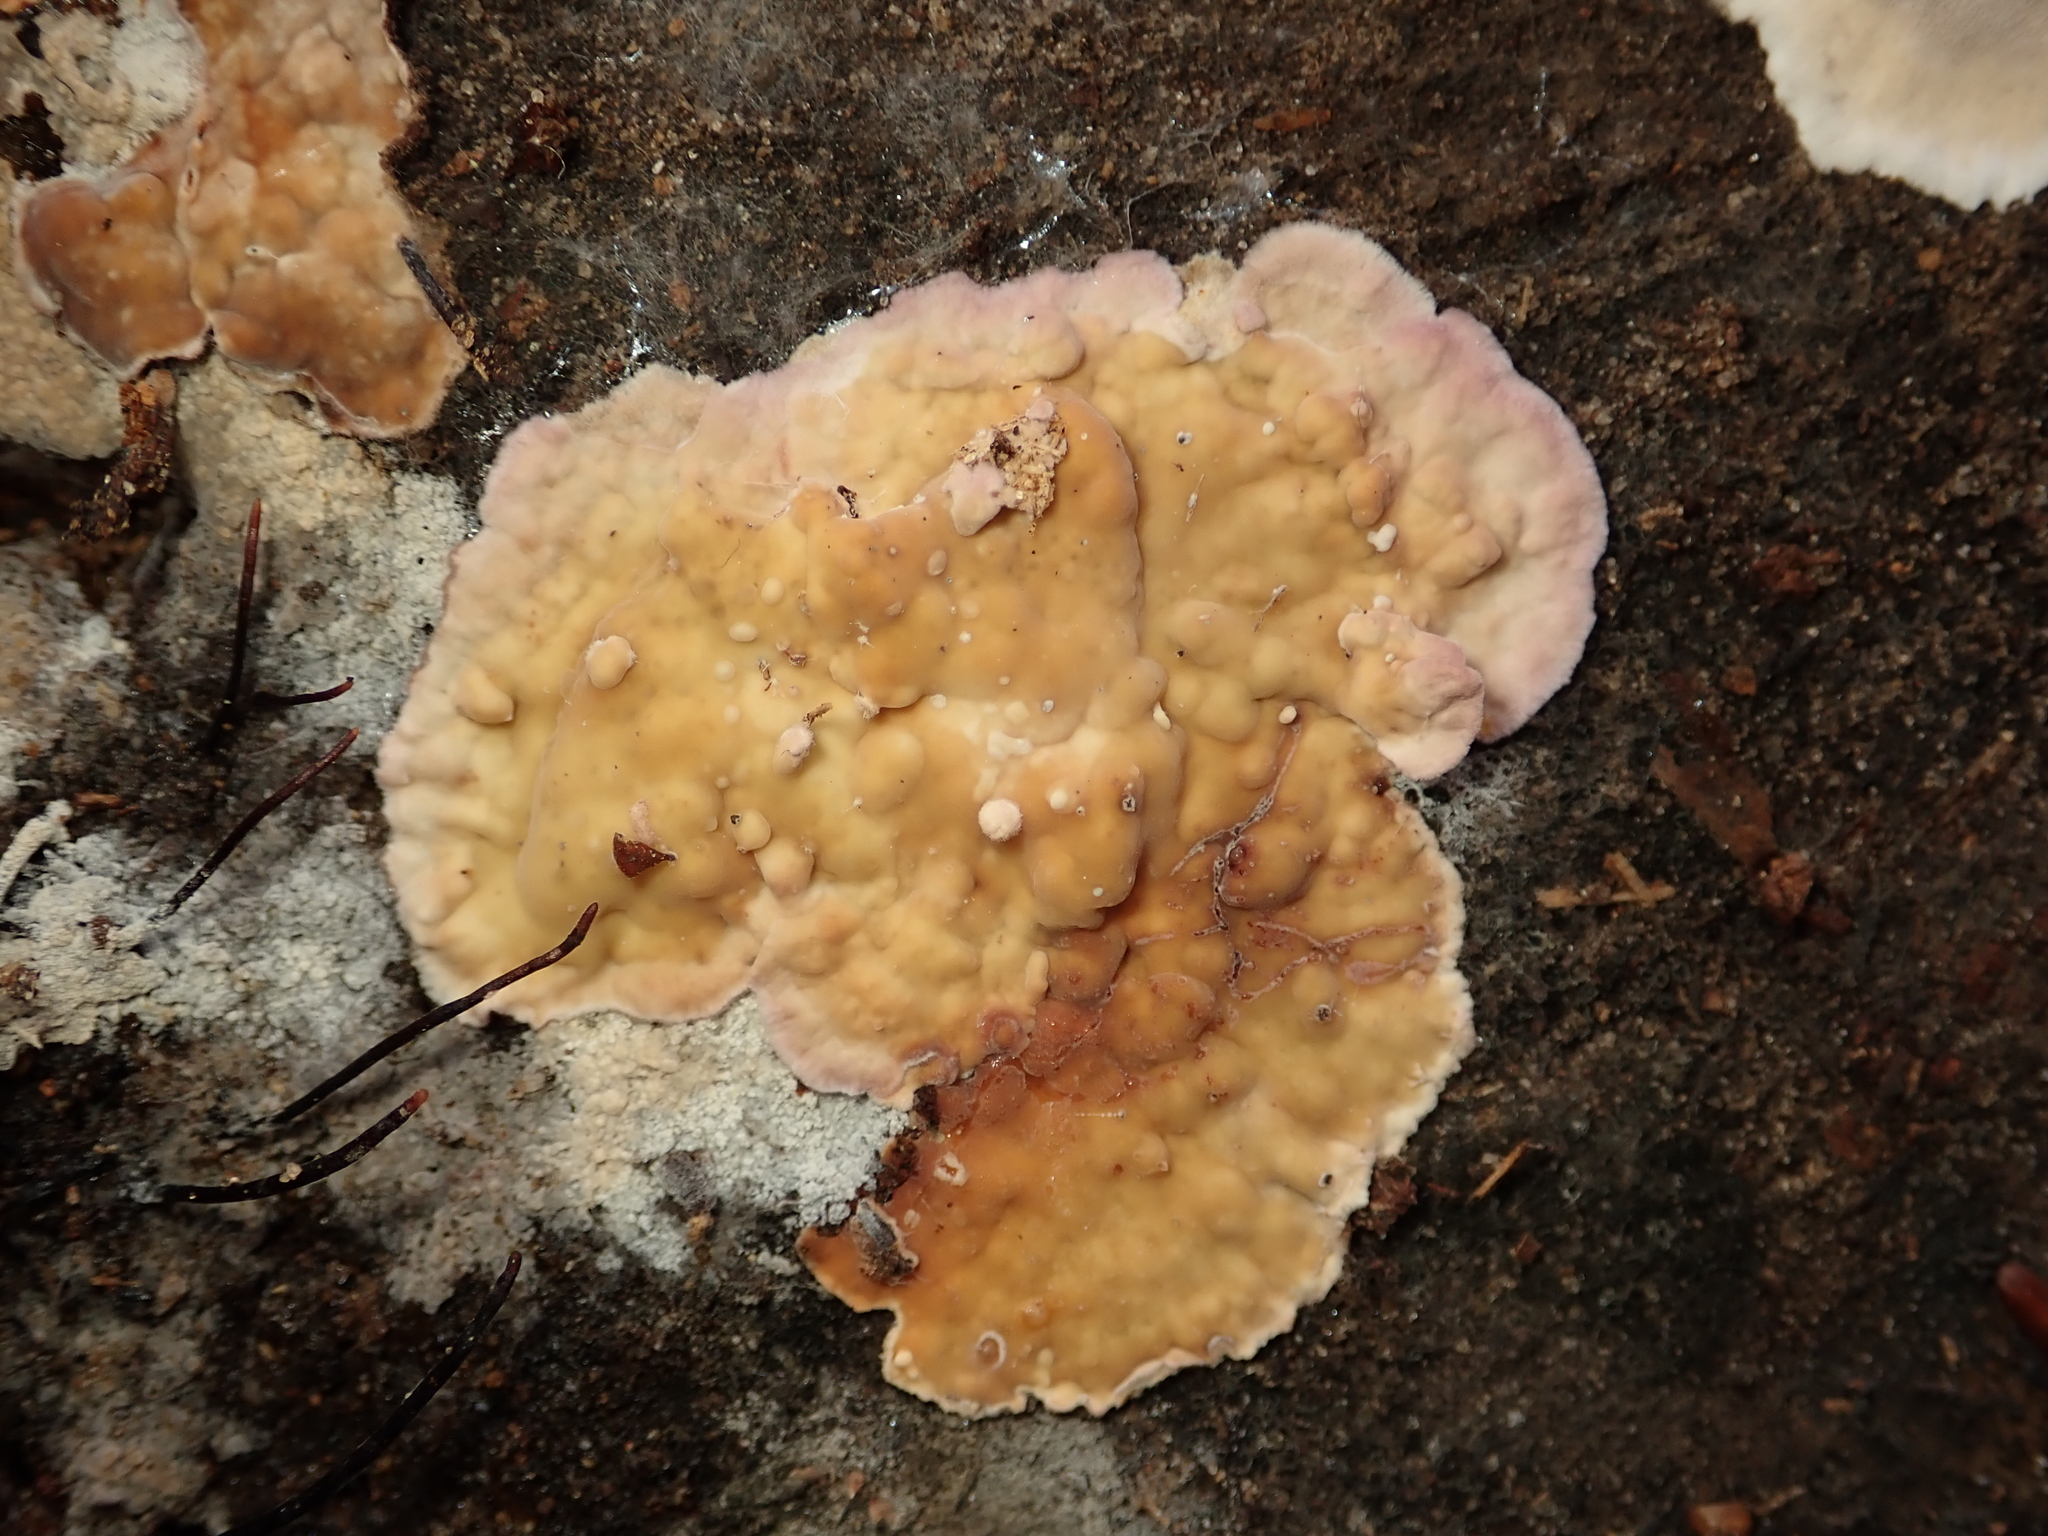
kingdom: Fungi
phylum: Basidiomycota
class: Agaricomycetes
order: Agaricales
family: Cyphellaceae
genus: Chondrostereum
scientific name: Chondrostereum purpureum
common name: Silver leaf disease
